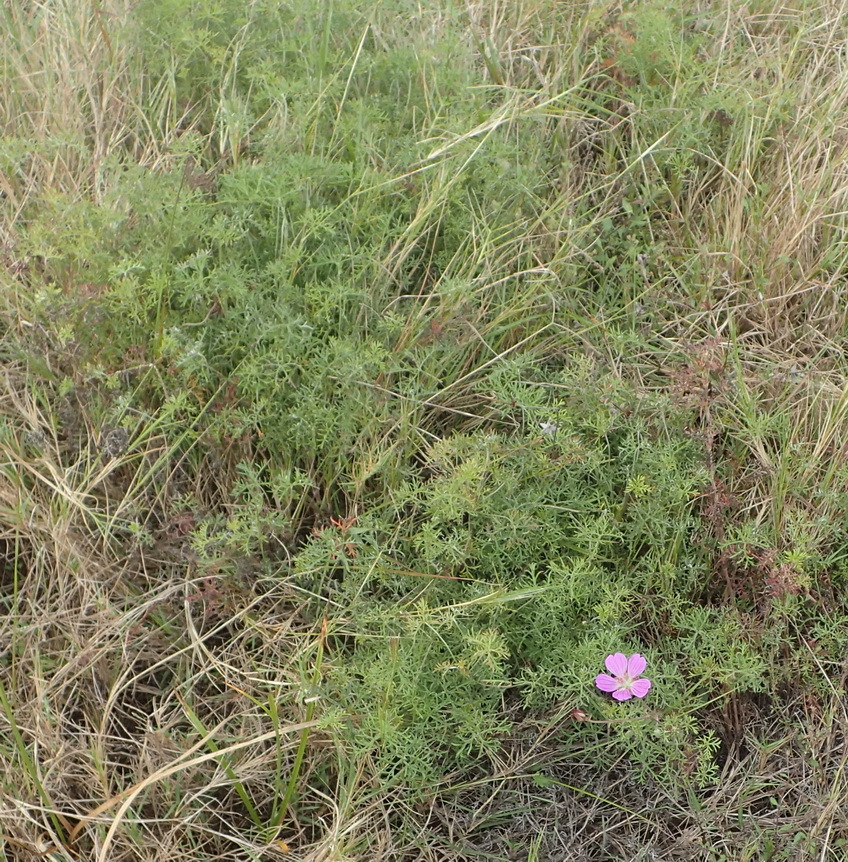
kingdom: Plantae
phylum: Tracheophyta
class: Magnoliopsida
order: Geraniales
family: Geraniaceae
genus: Geranium
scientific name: Geranium incanum
